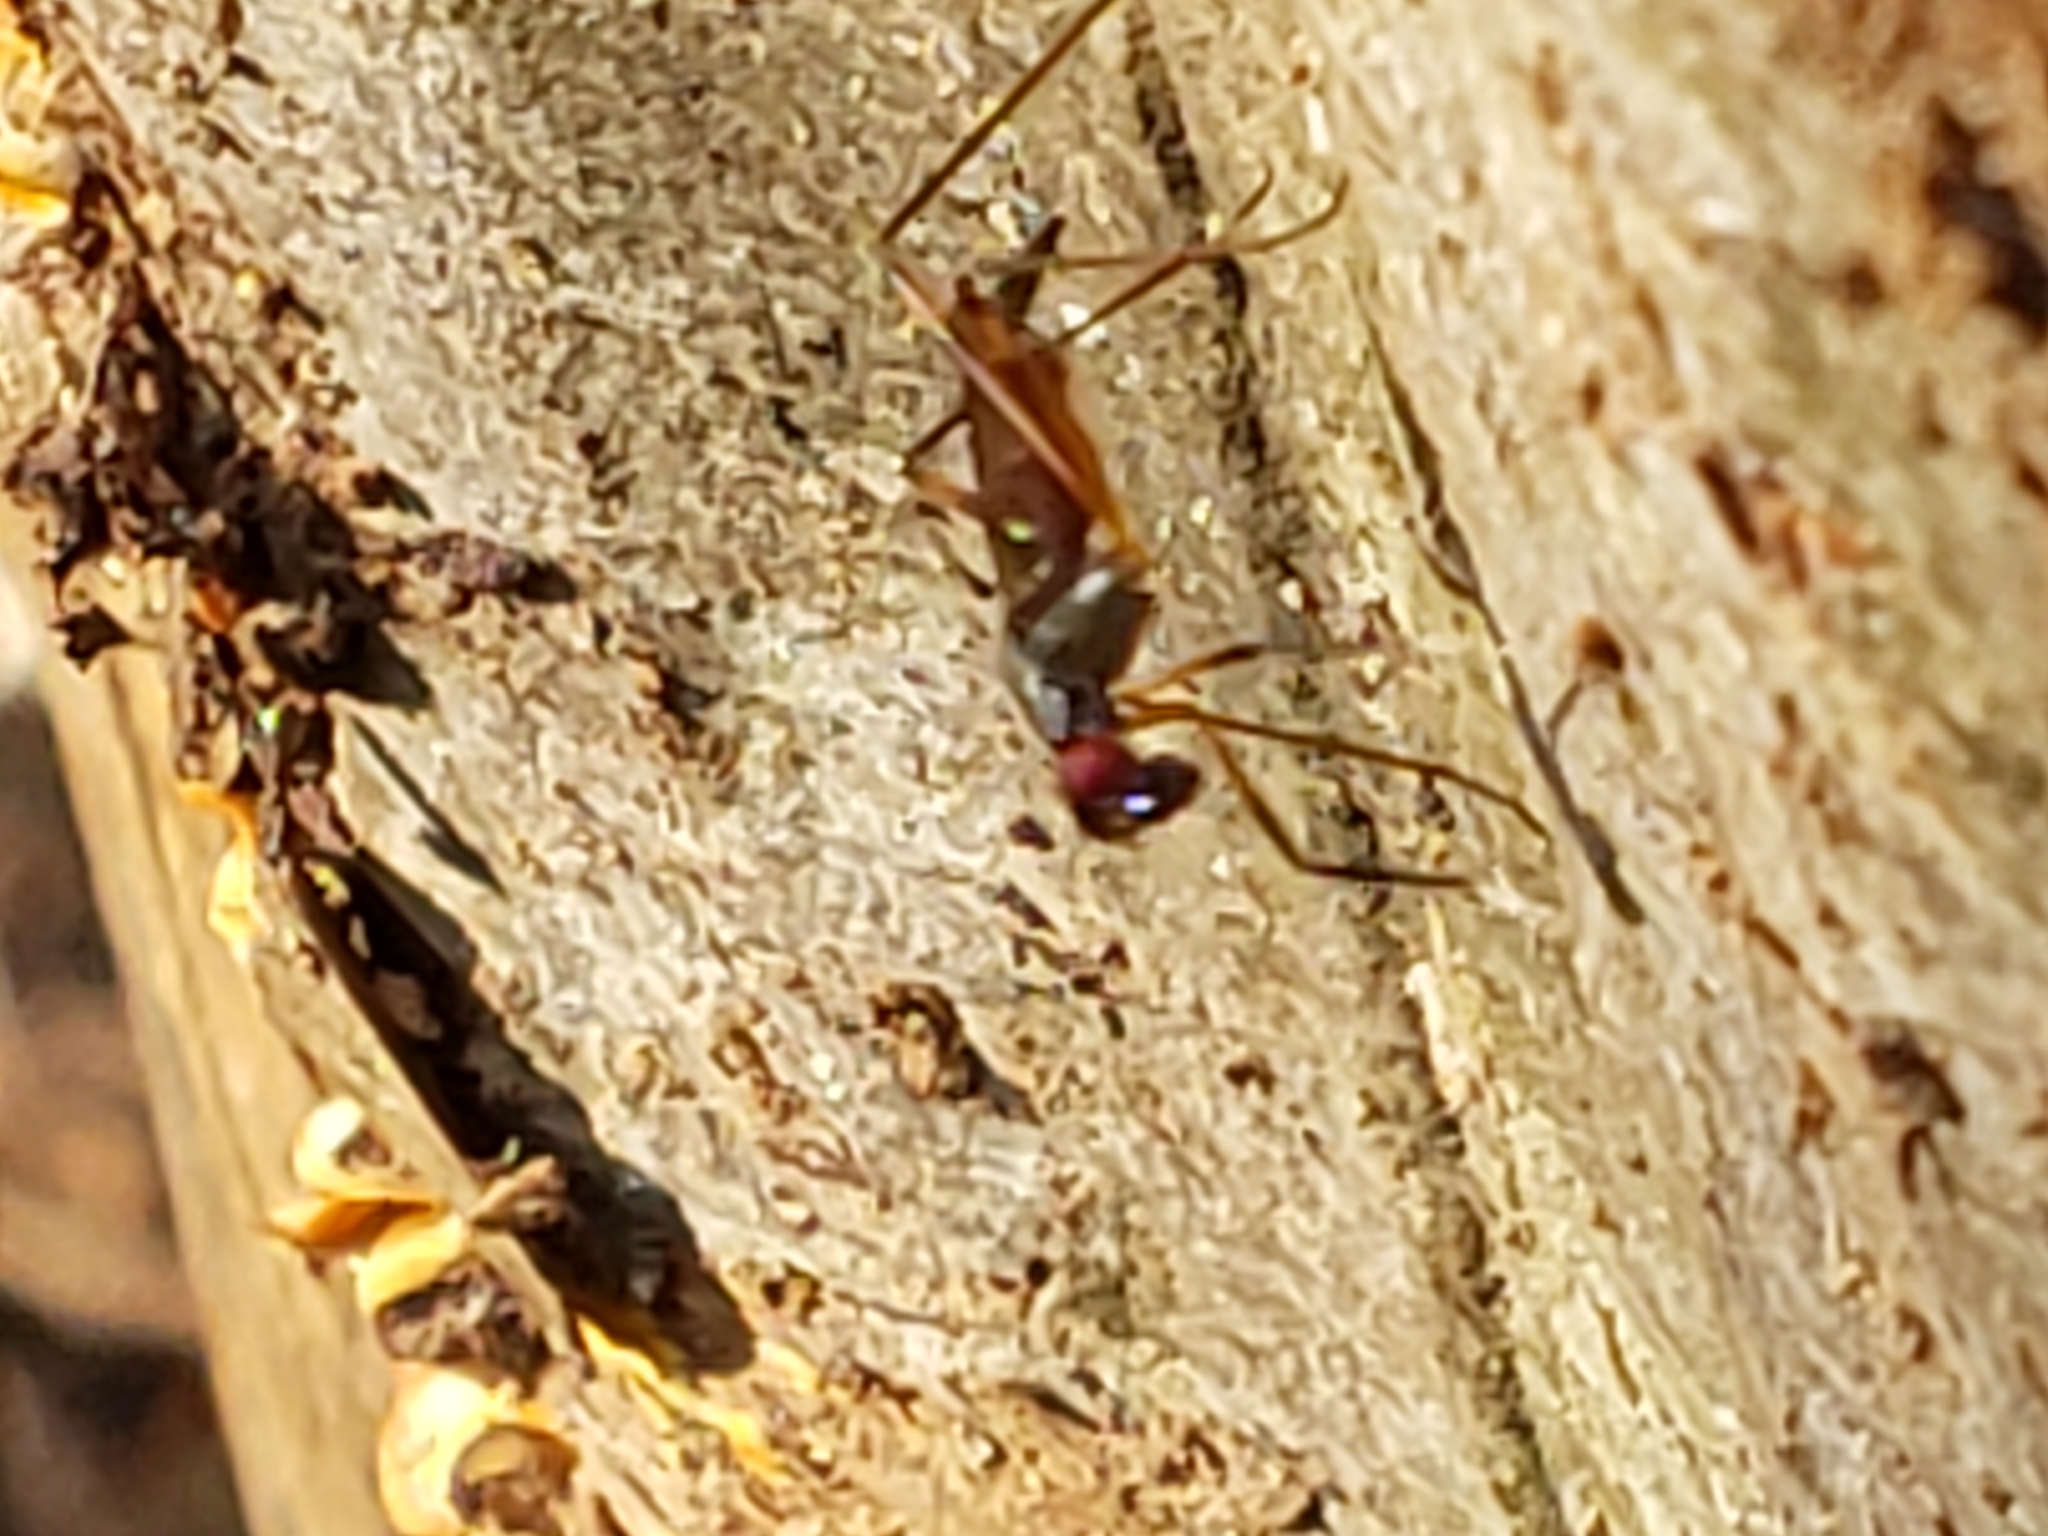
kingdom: Animalia
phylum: Arthropoda
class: Insecta
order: Diptera
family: Micropezidae
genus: Rainieria
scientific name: Rainieria antennaepes
